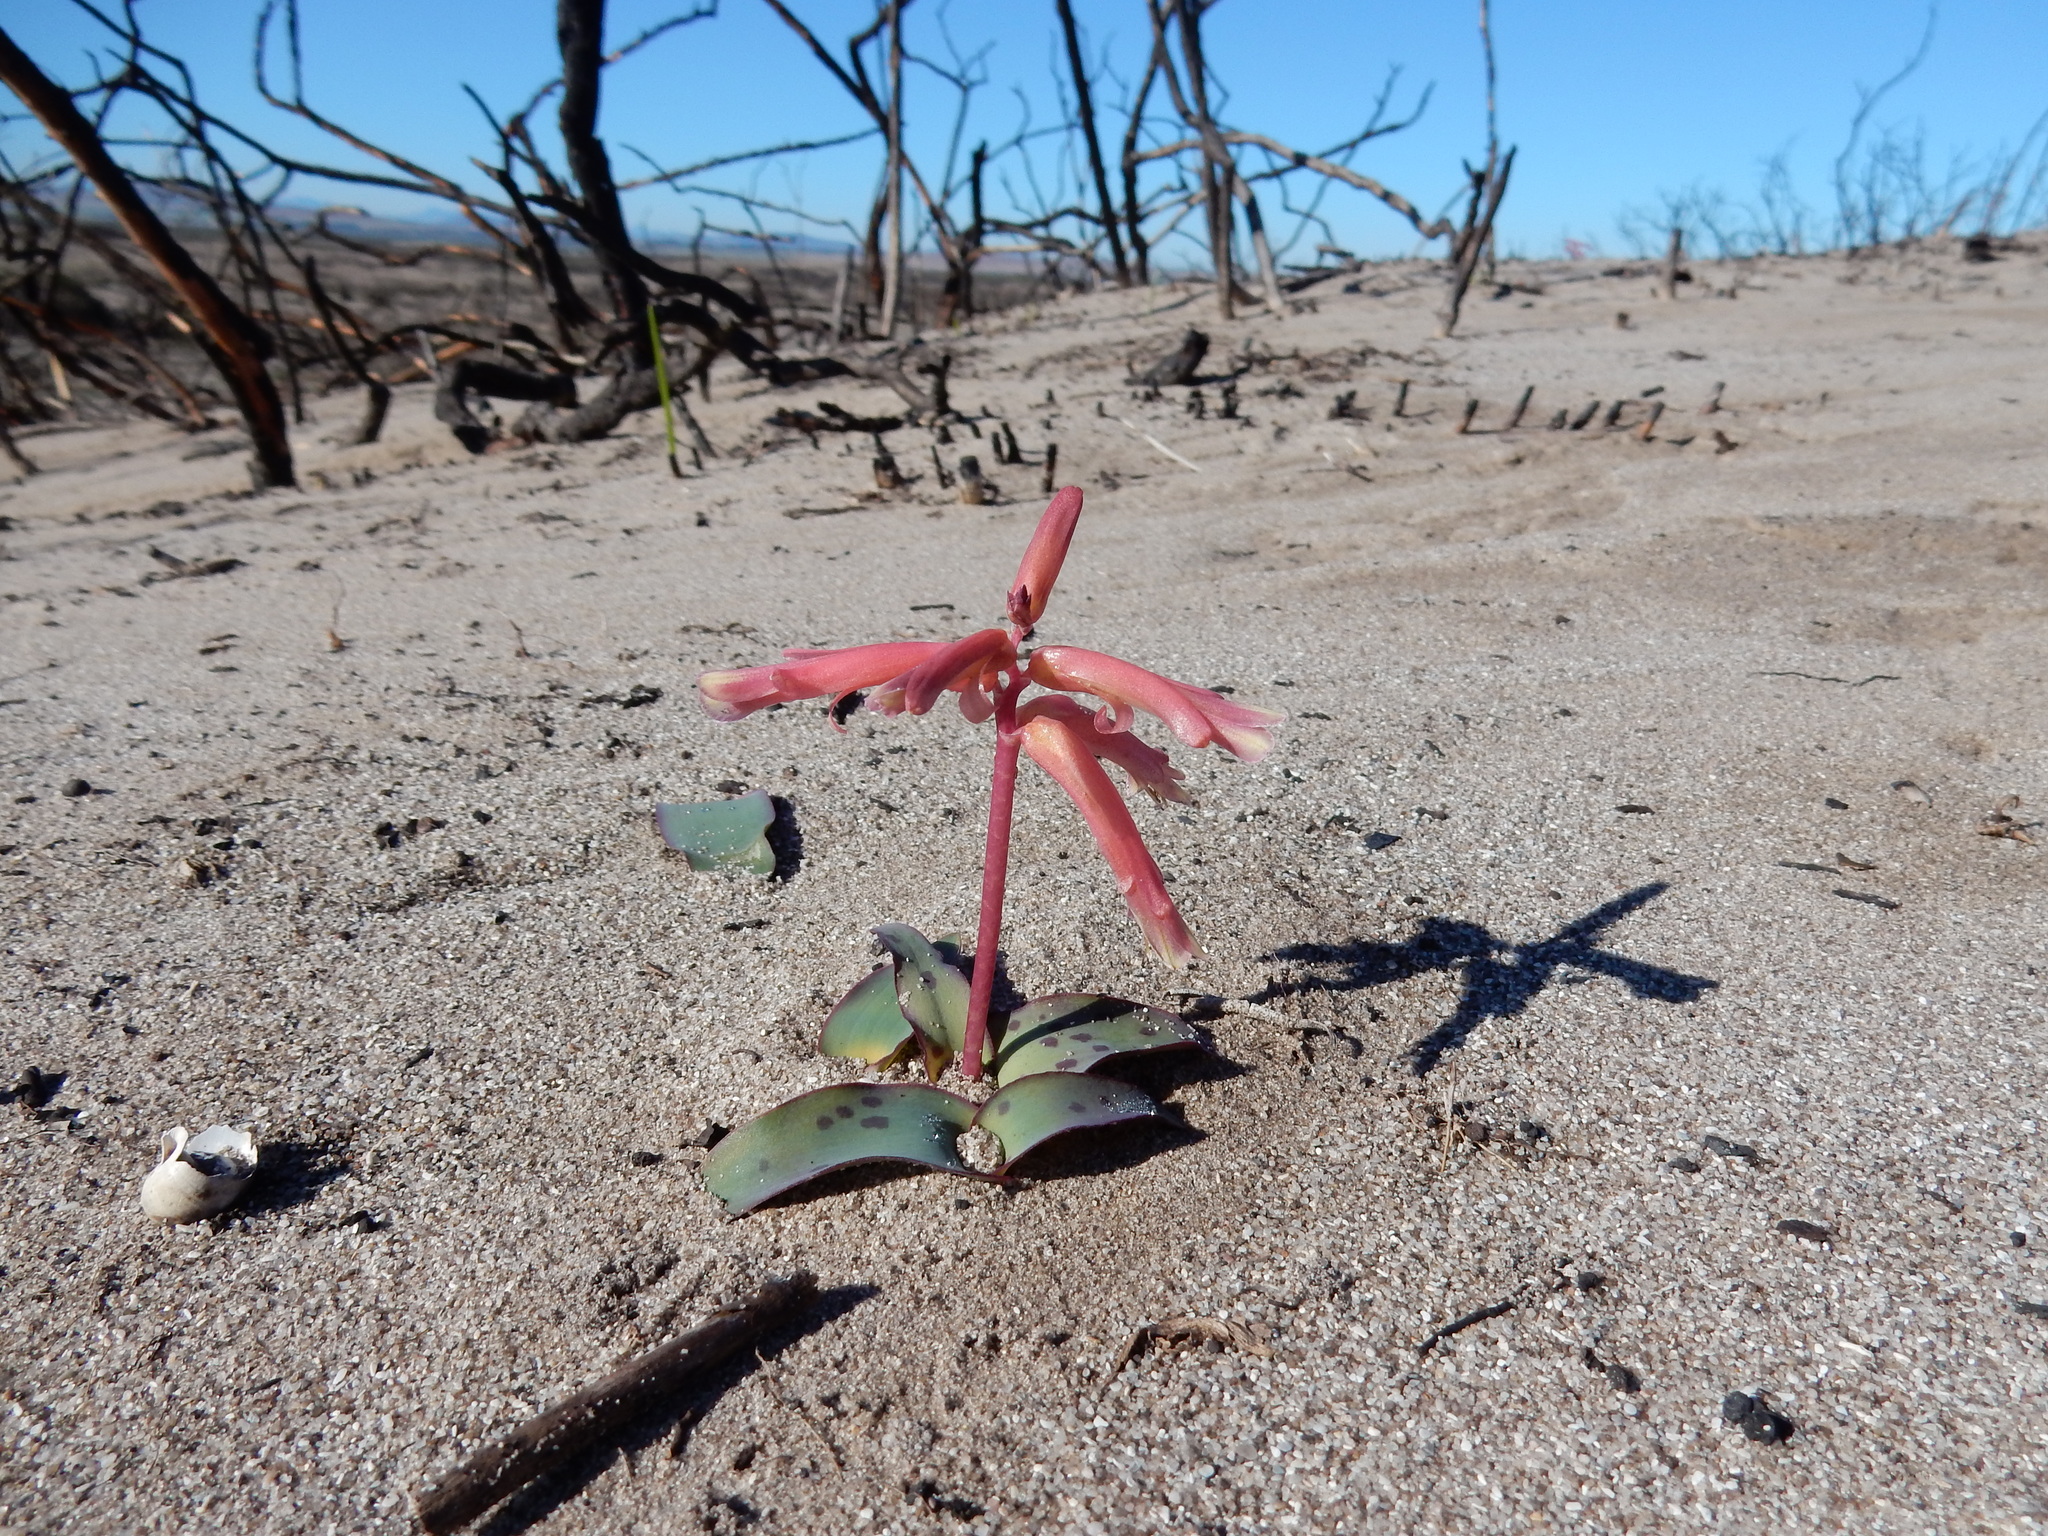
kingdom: Plantae
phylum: Tracheophyta
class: Liliopsida
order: Asparagales
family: Asparagaceae
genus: Lachenalia
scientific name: Lachenalia punctata
